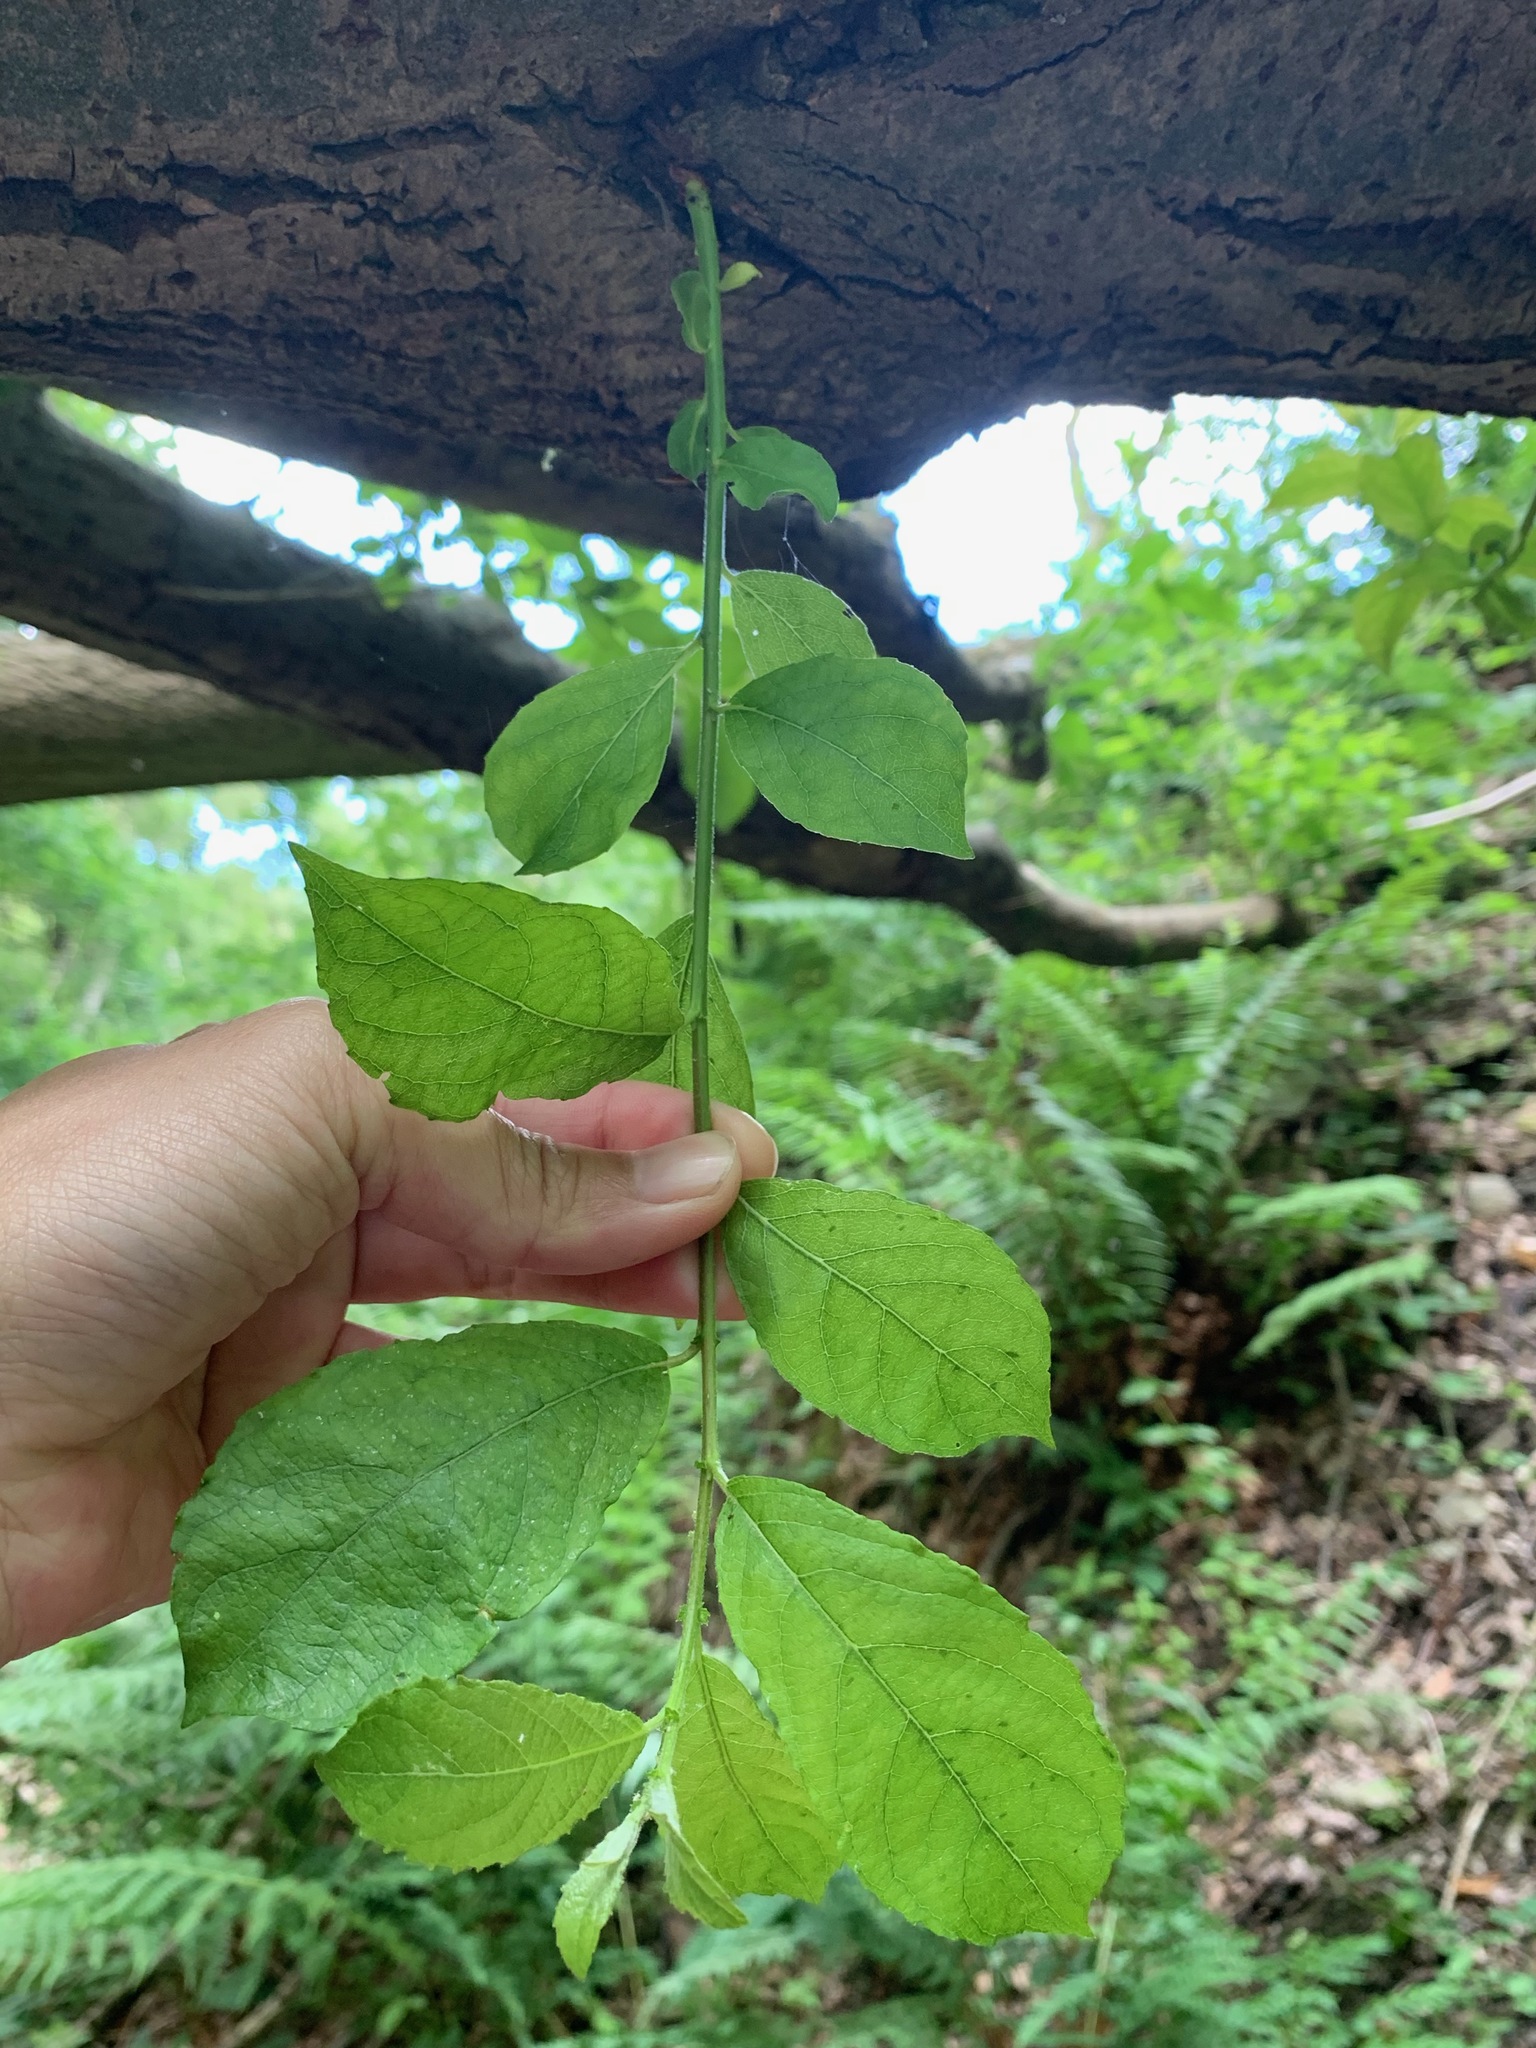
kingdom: Plantae
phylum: Tracheophyta
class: Magnoliopsida
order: Malpighiales
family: Salicaceae
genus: Salix
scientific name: Salix caprea
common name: Goat willow
